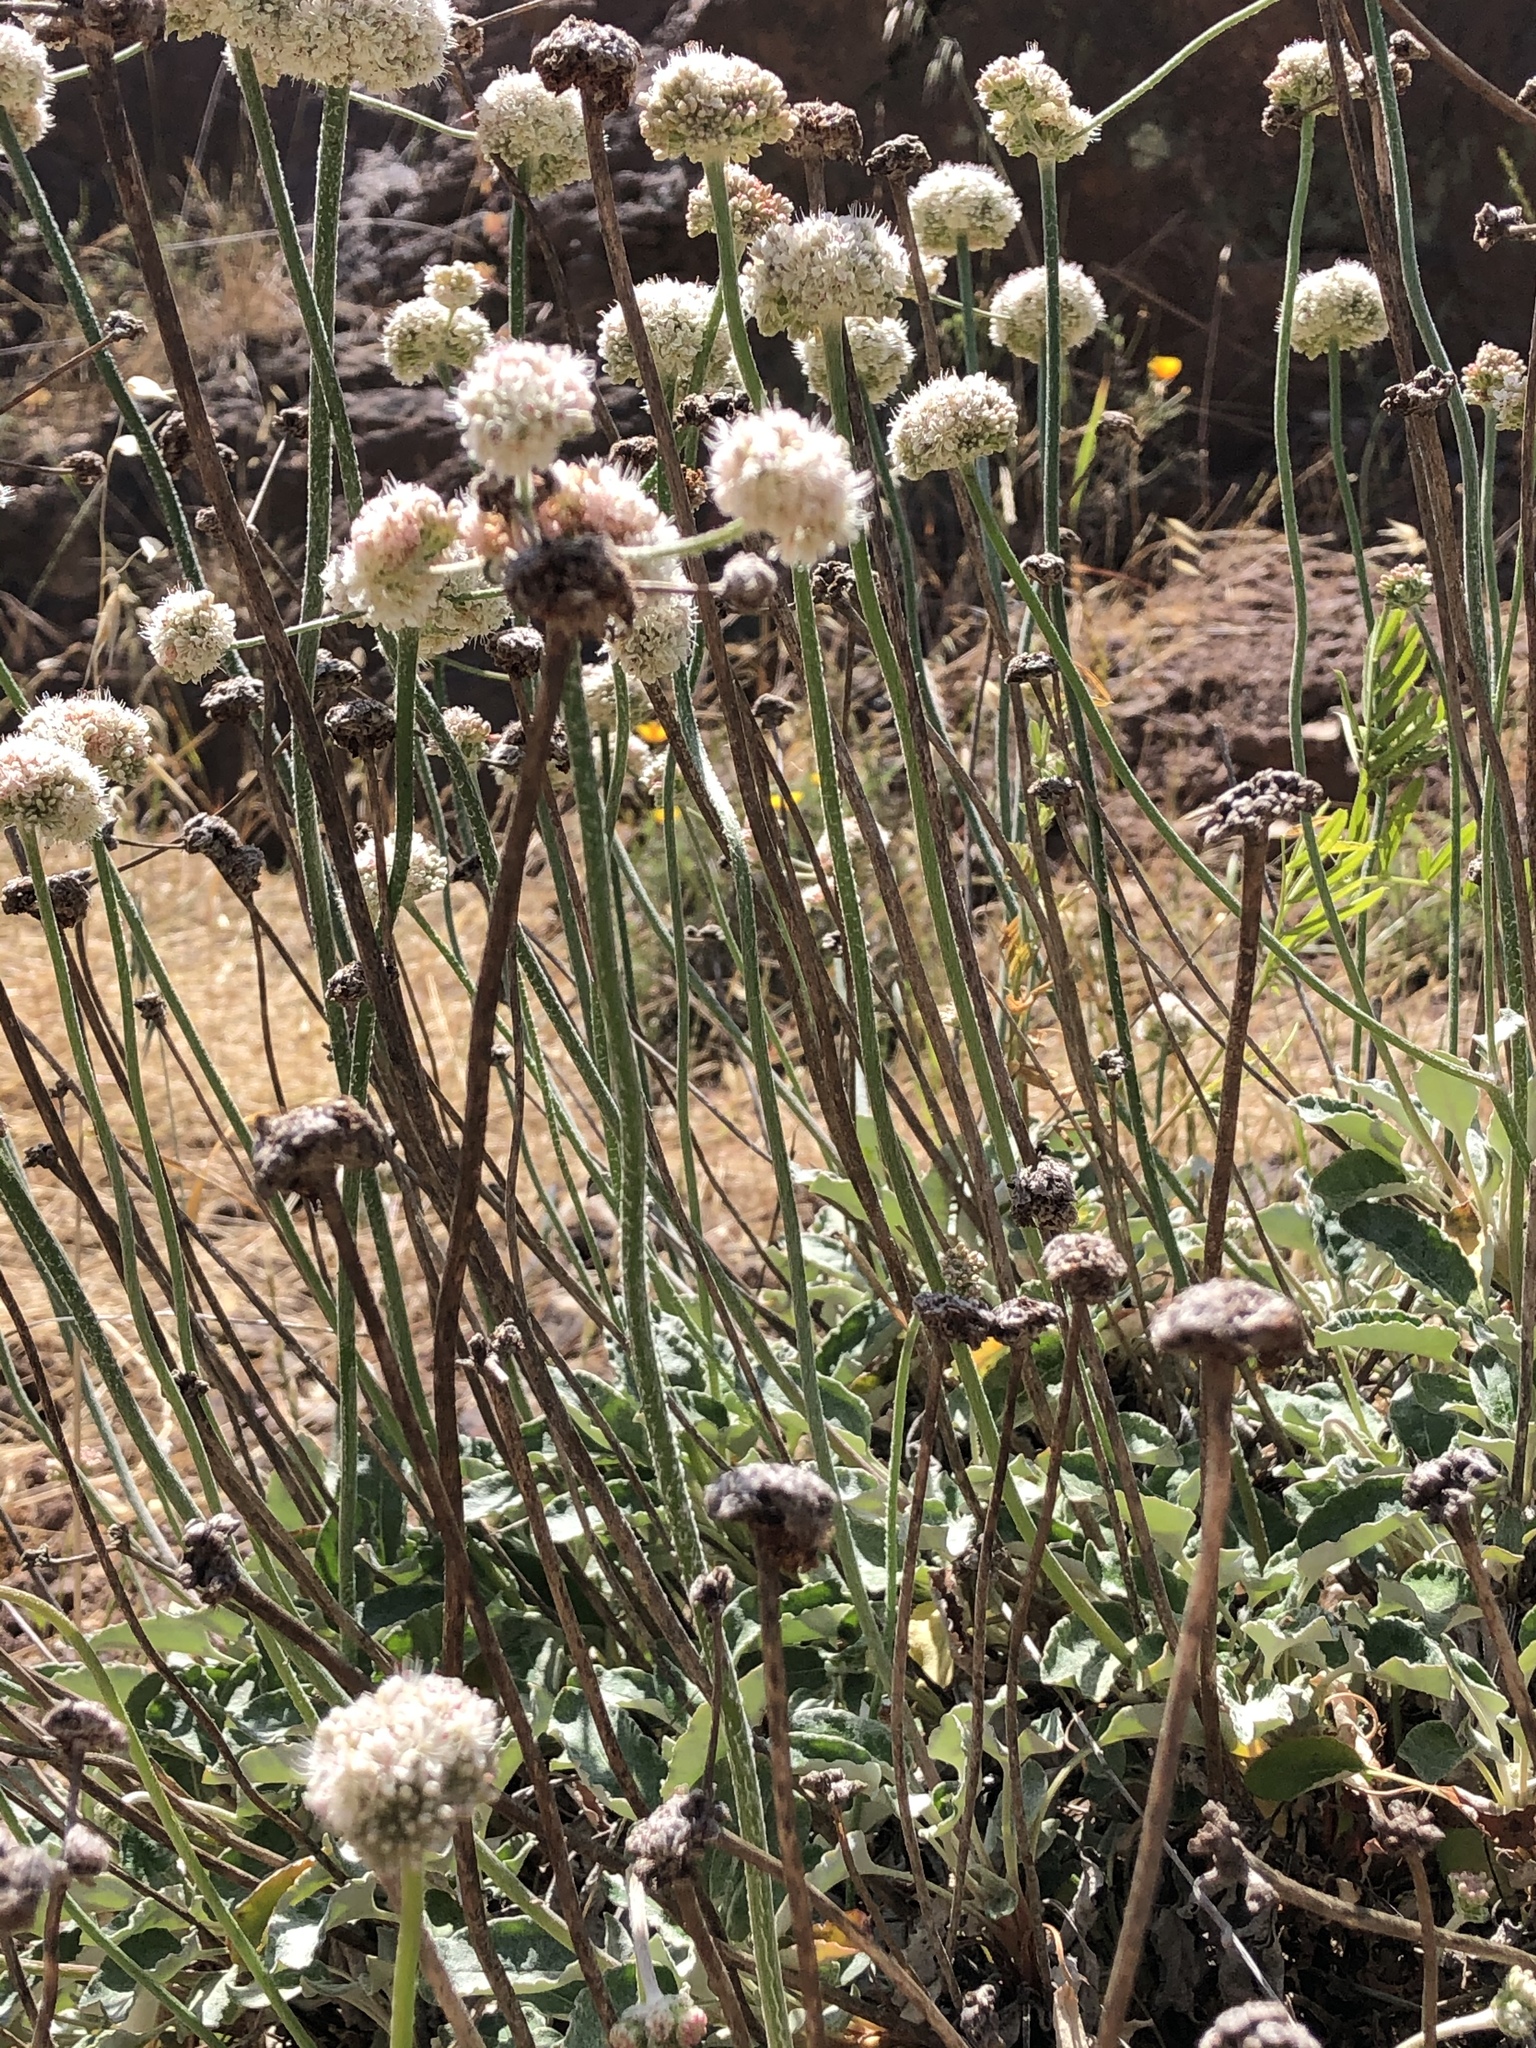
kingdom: Plantae
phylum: Tracheophyta
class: Magnoliopsida
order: Caryophyllales
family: Polygonaceae
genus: Eriogonum
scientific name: Eriogonum latifolium
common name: Seaside wild buckwheat
